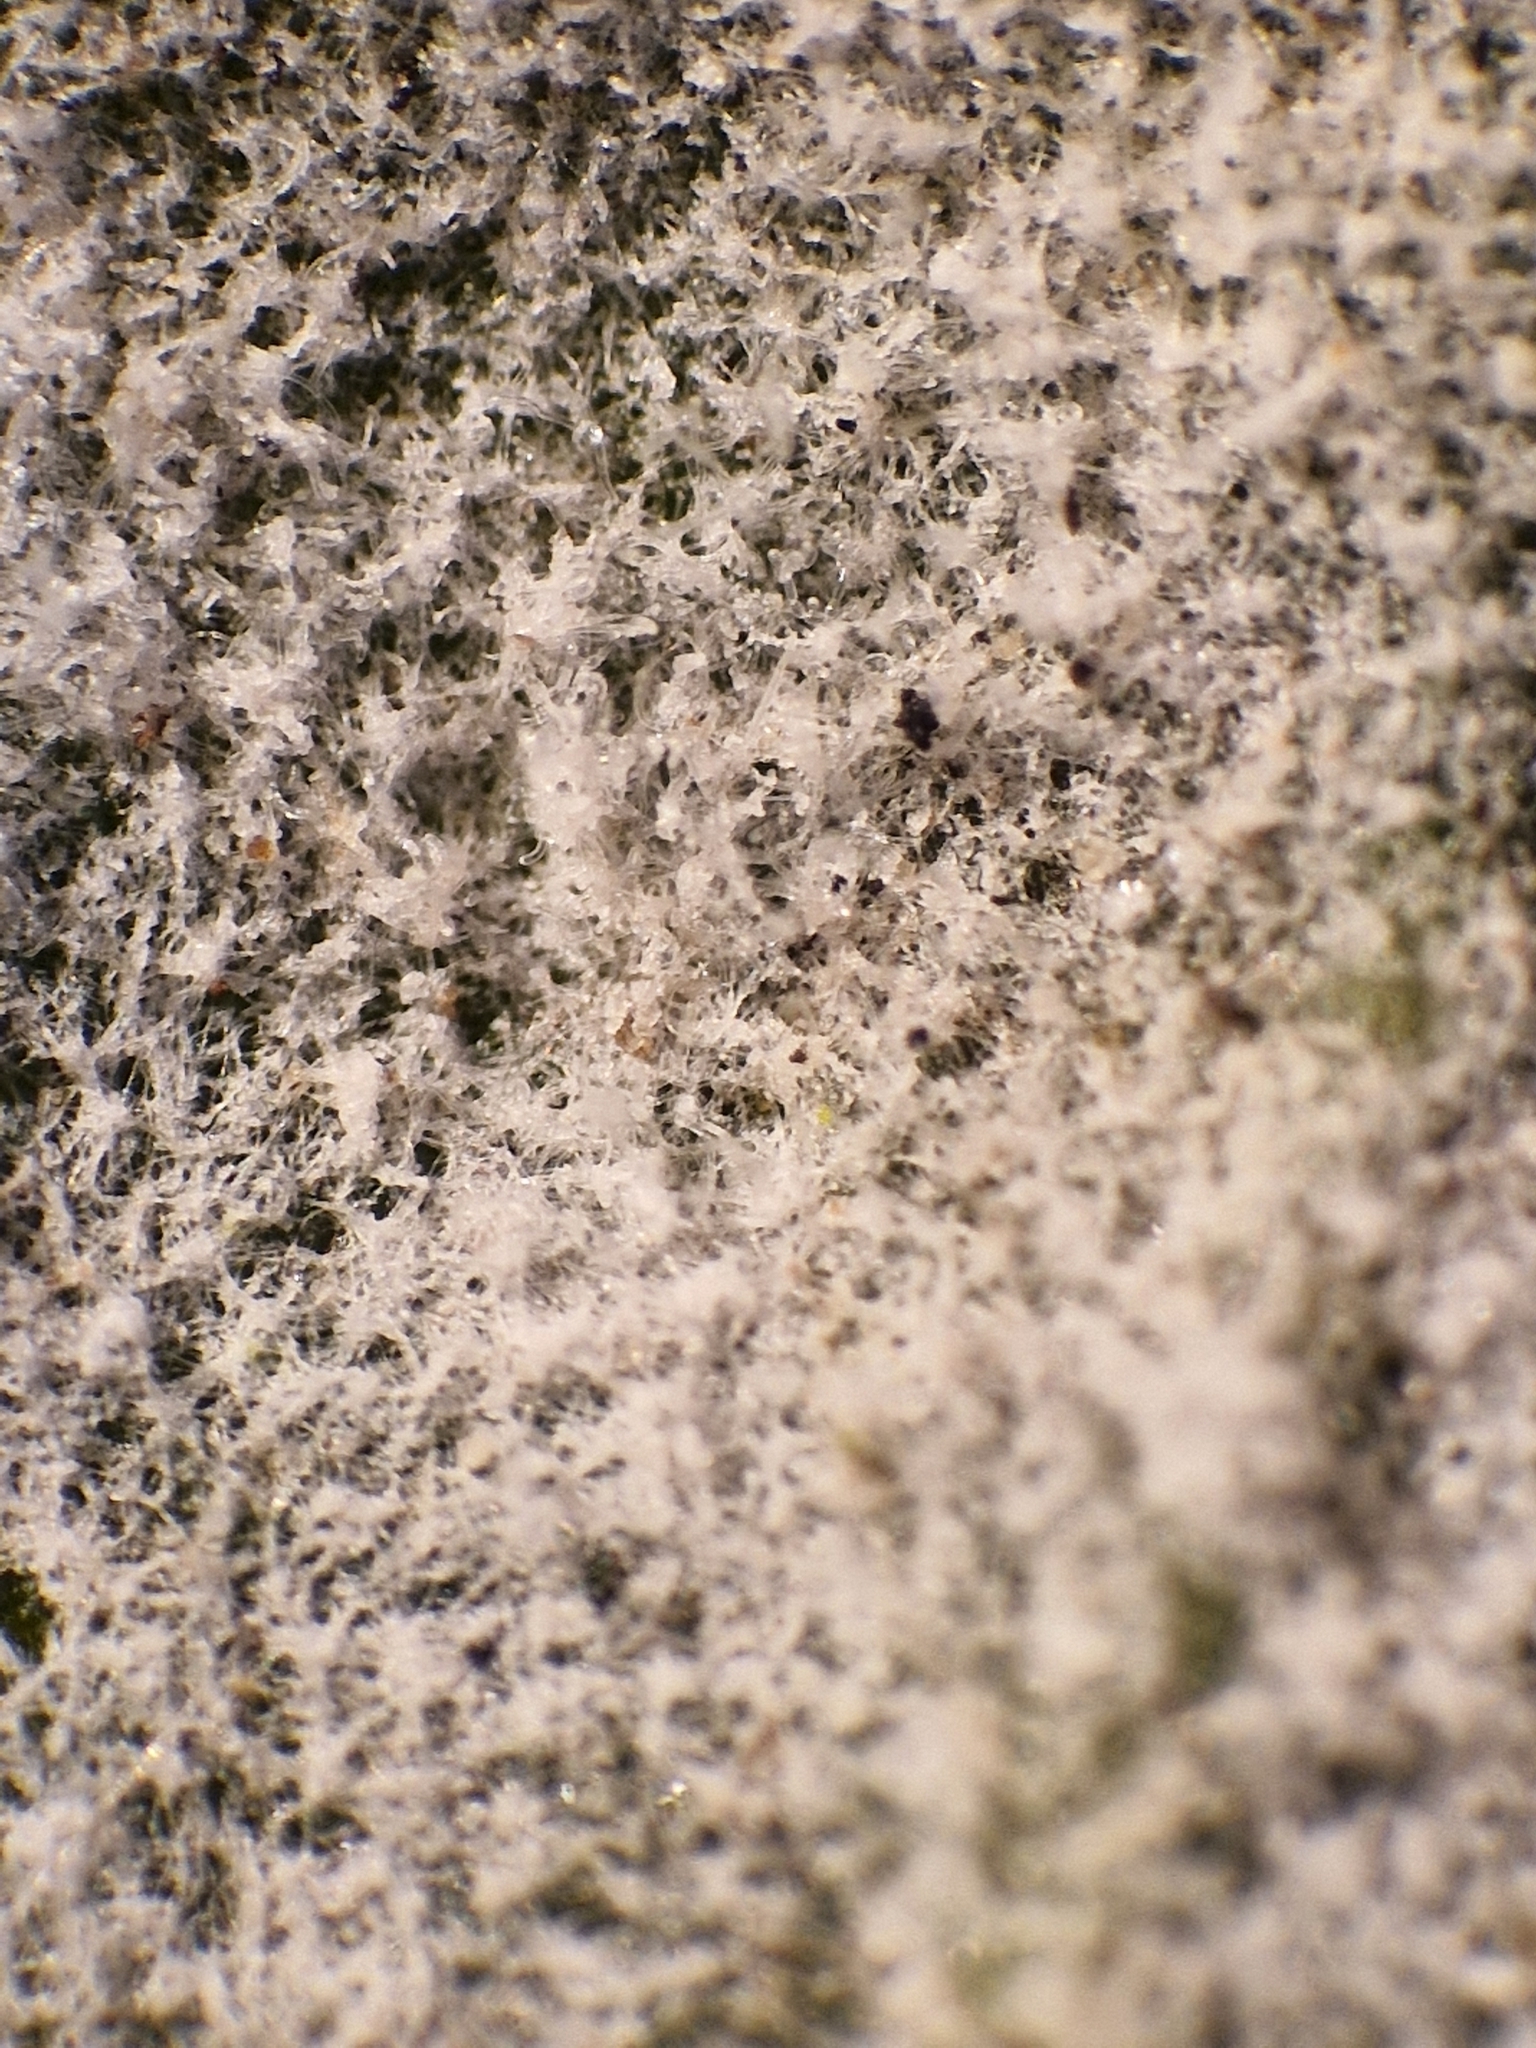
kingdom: Fungi
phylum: Ascomycota
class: Leotiomycetes
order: Helotiales
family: Erysiphaceae
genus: Golovinomyces
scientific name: Golovinomyces vincae
